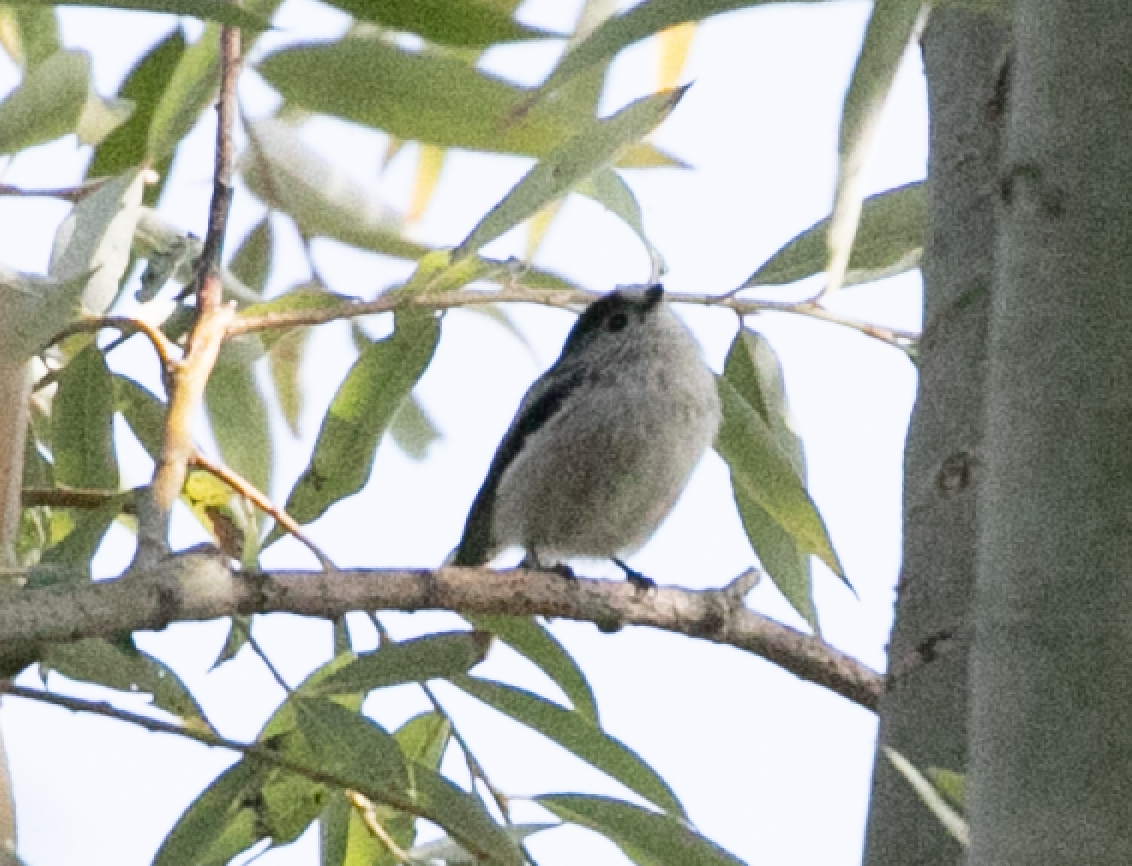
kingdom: Animalia
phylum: Chordata
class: Aves
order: Passeriformes
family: Aegithalidae
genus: Aegithalos
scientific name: Aegithalos caudatus
